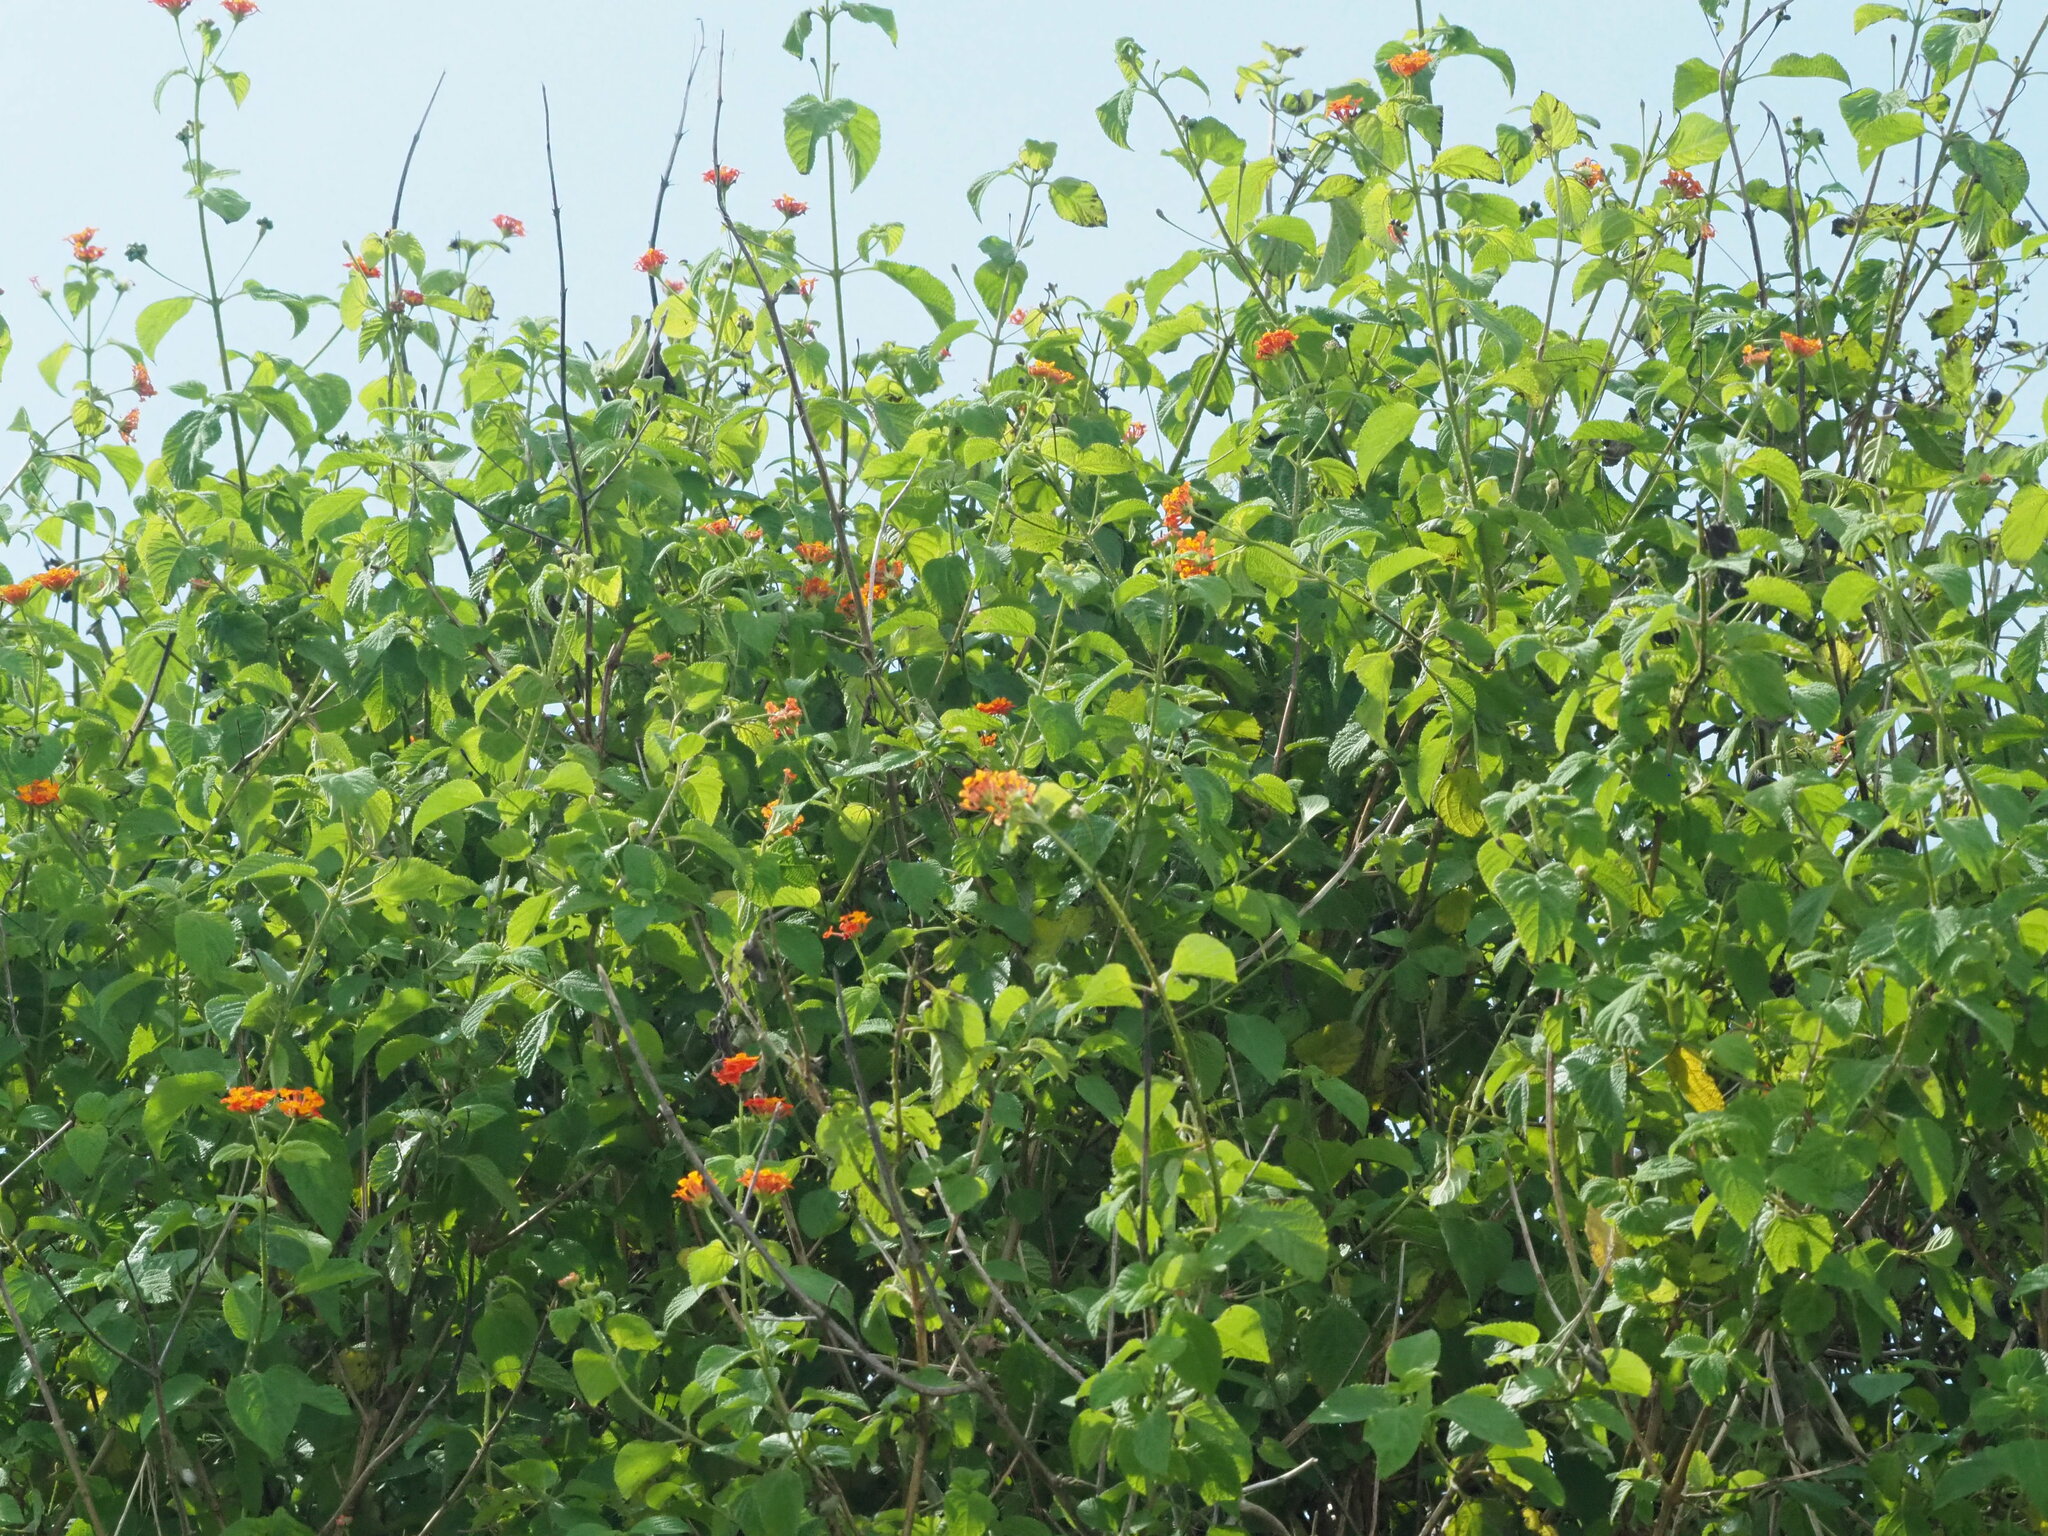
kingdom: Plantae
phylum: Tracheophyta
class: Magnoliopsida
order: Lamiales
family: Verbenaceae
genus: Lantana
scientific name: Lantana camara
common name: Lantana
